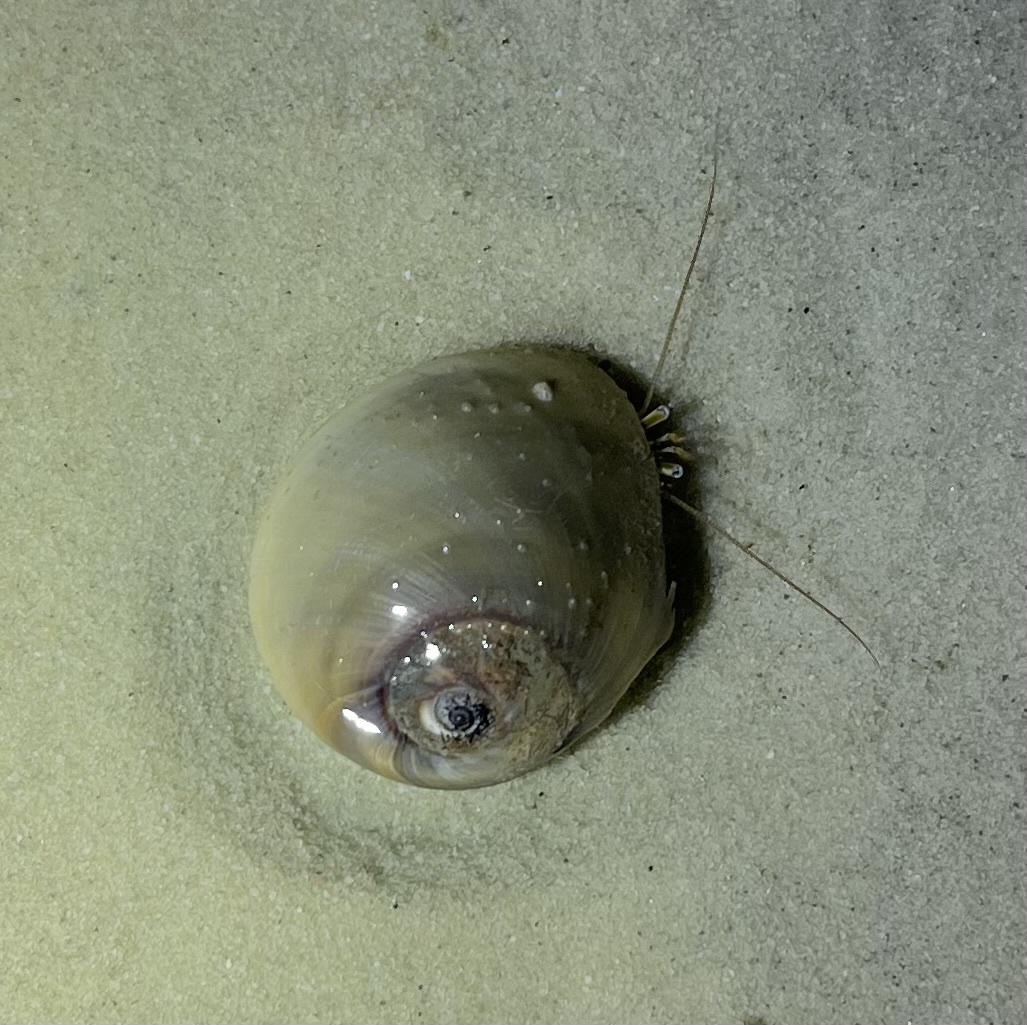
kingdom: Animalia
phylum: Arthropoda
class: Malacostraca
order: Decapoda
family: Diogenidae
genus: Clibanarius
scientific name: Clibanarius vittatus
